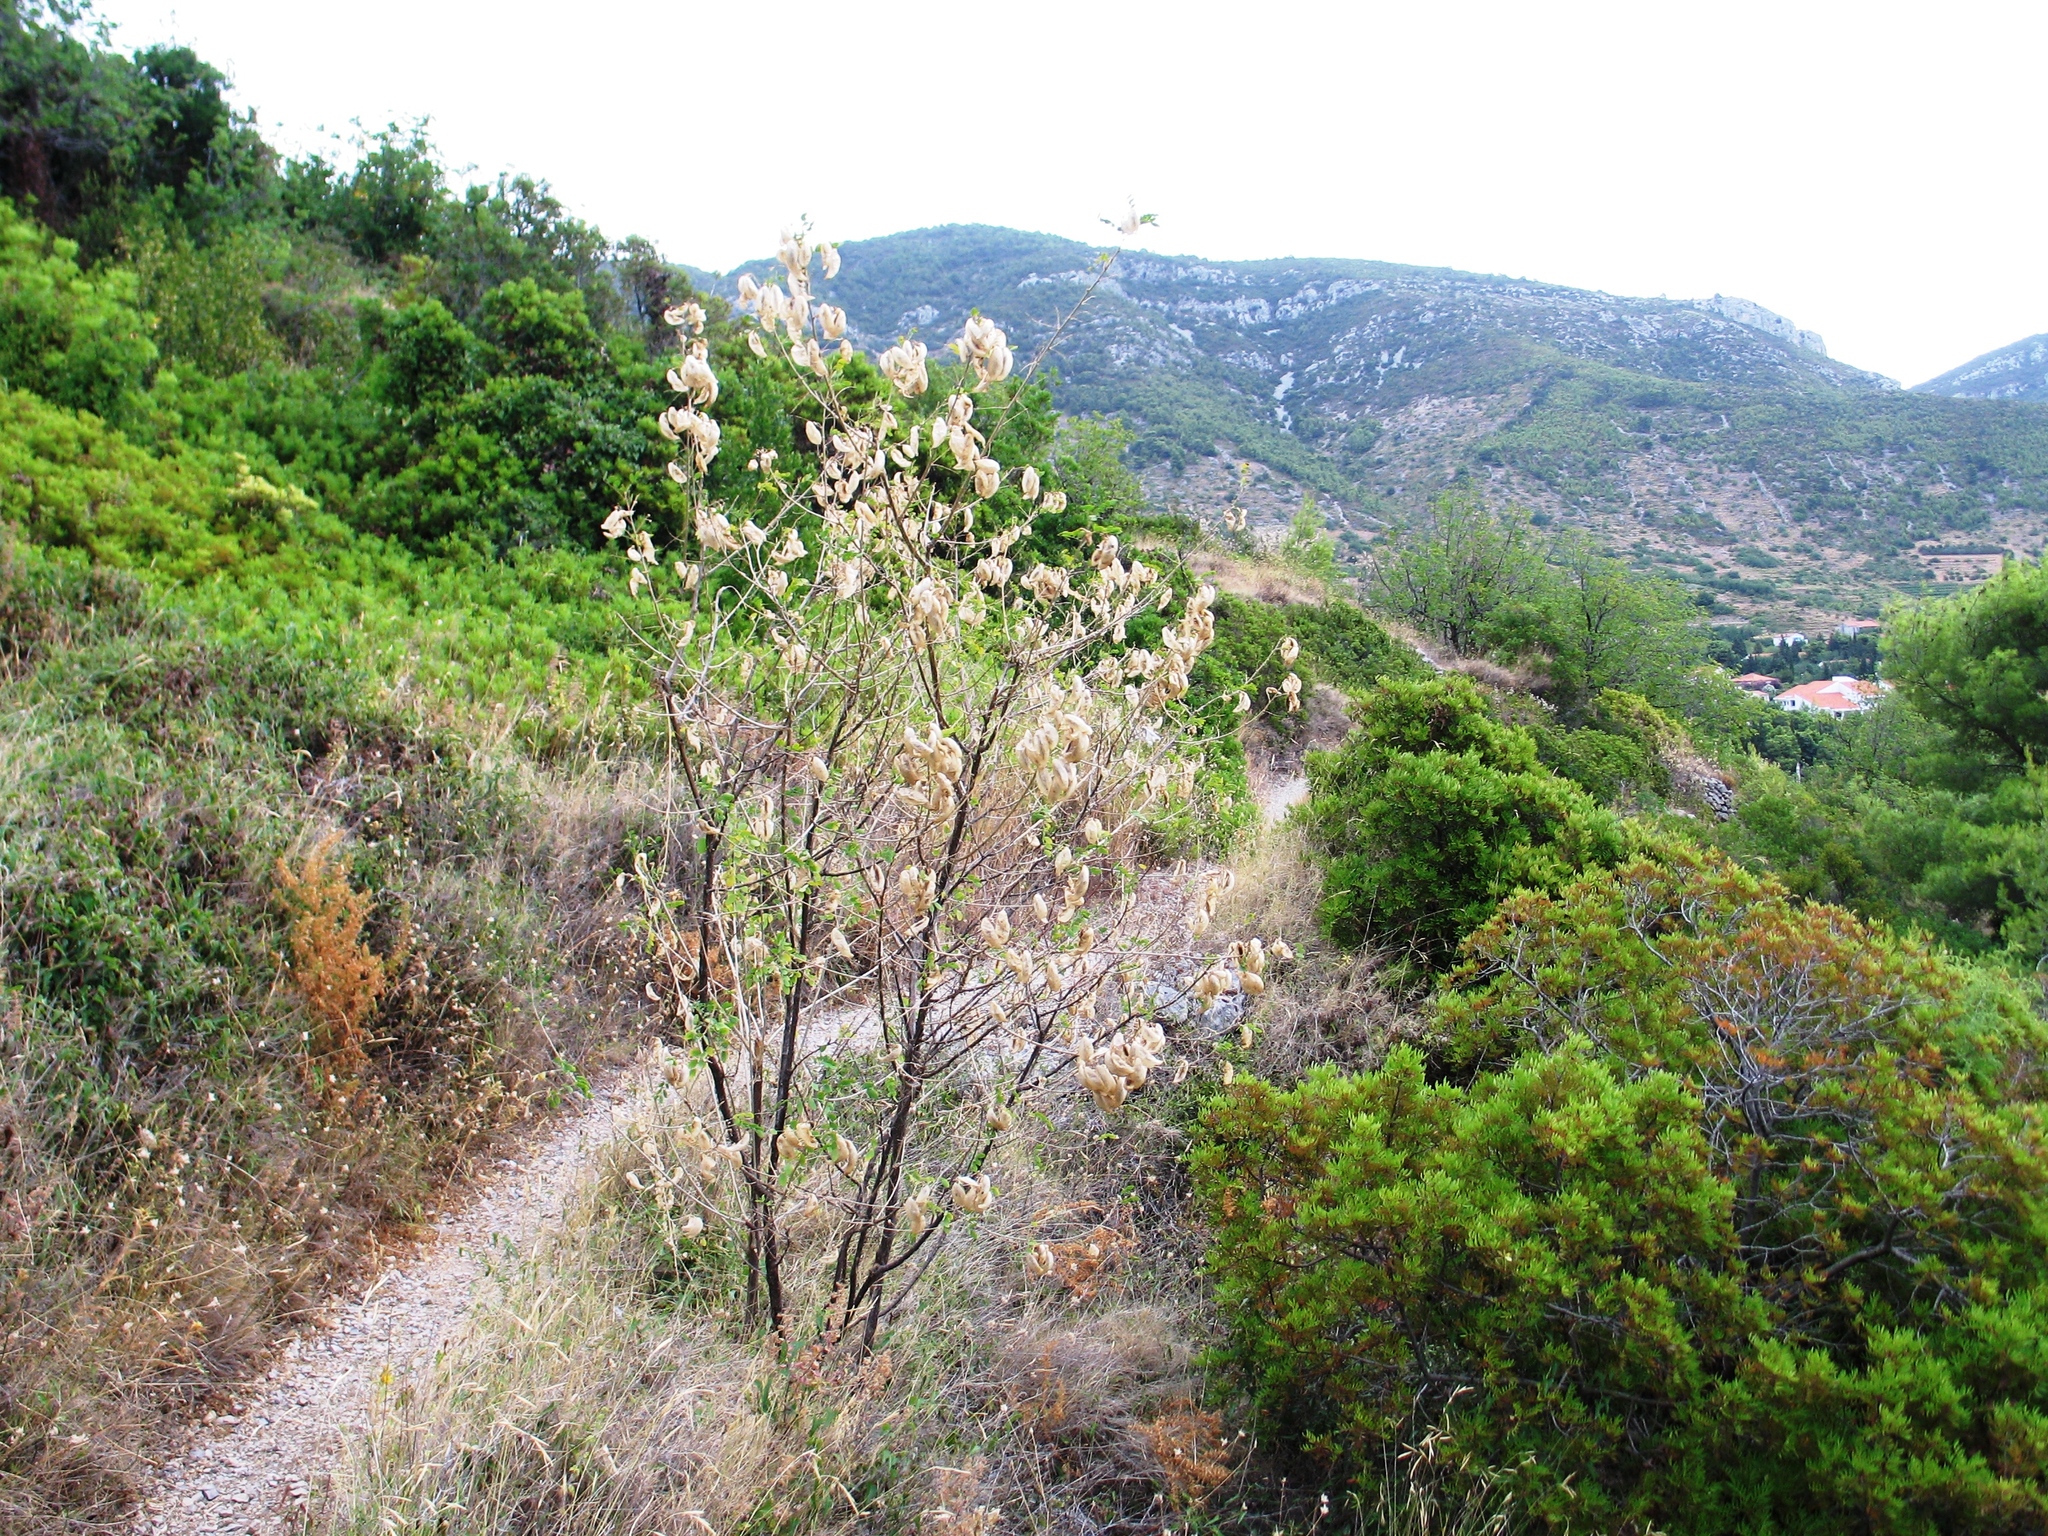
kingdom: Plantae
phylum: Tracheophyta
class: Magnoliopsida
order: Fabales
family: Fabaceae
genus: Colutea
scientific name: Colutea arborescens
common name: Bladder-senna
